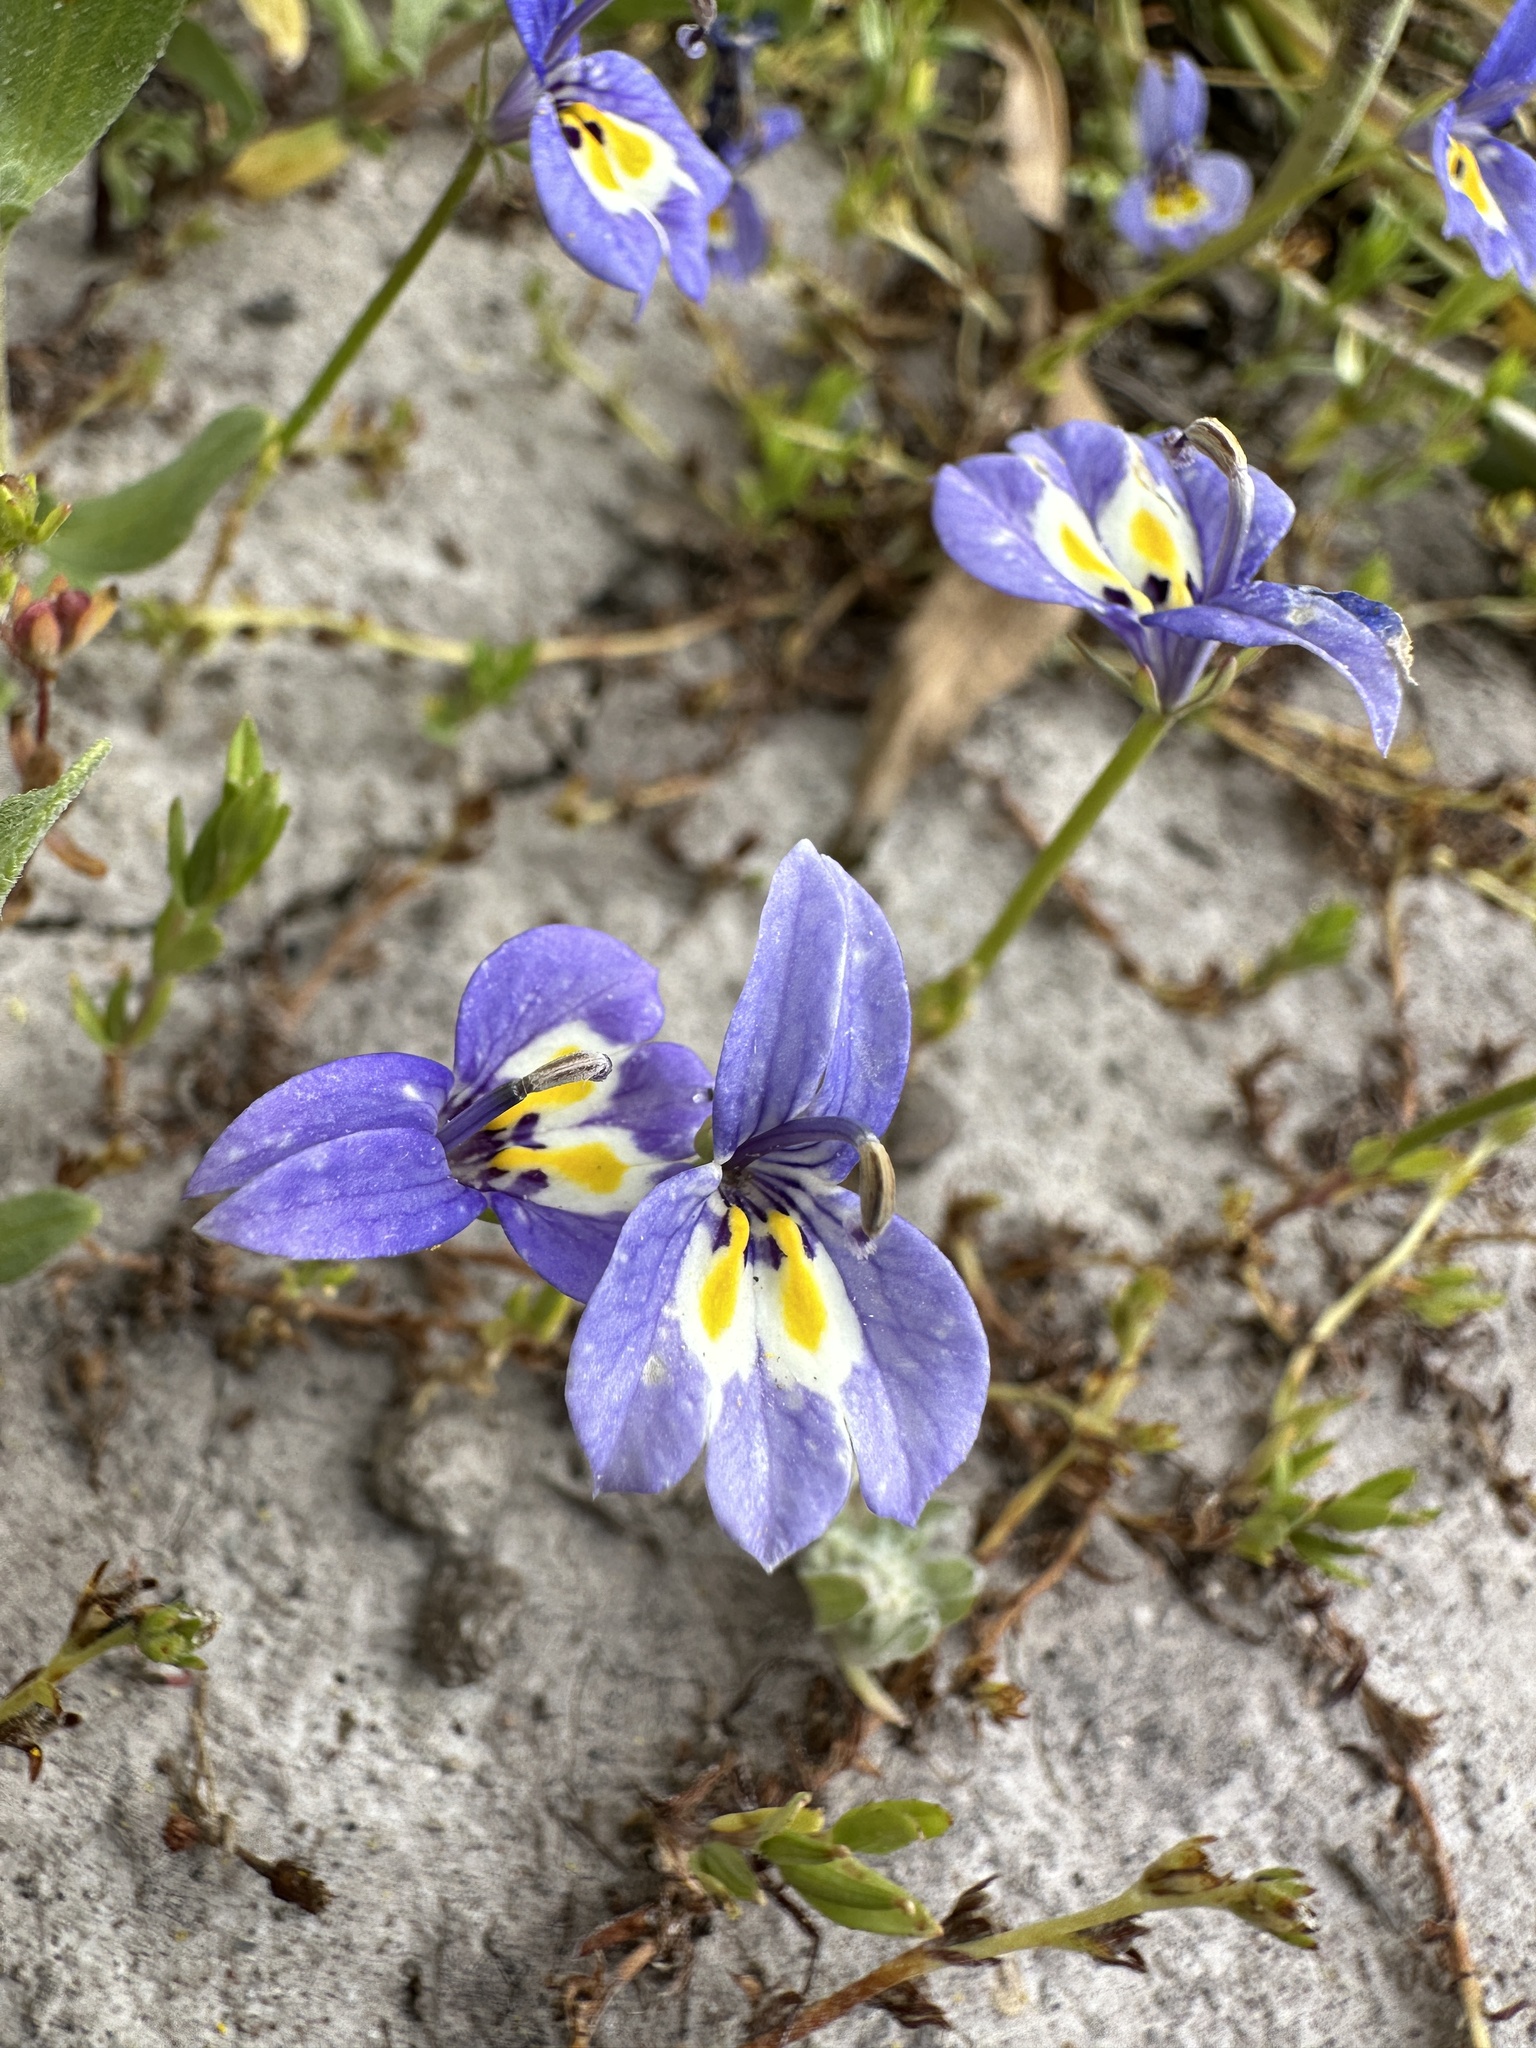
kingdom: Plantae
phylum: Tracheophyta
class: Magnoliopsida
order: Asterales
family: Campanulaceae
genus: Downingia
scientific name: Downingia insignis
